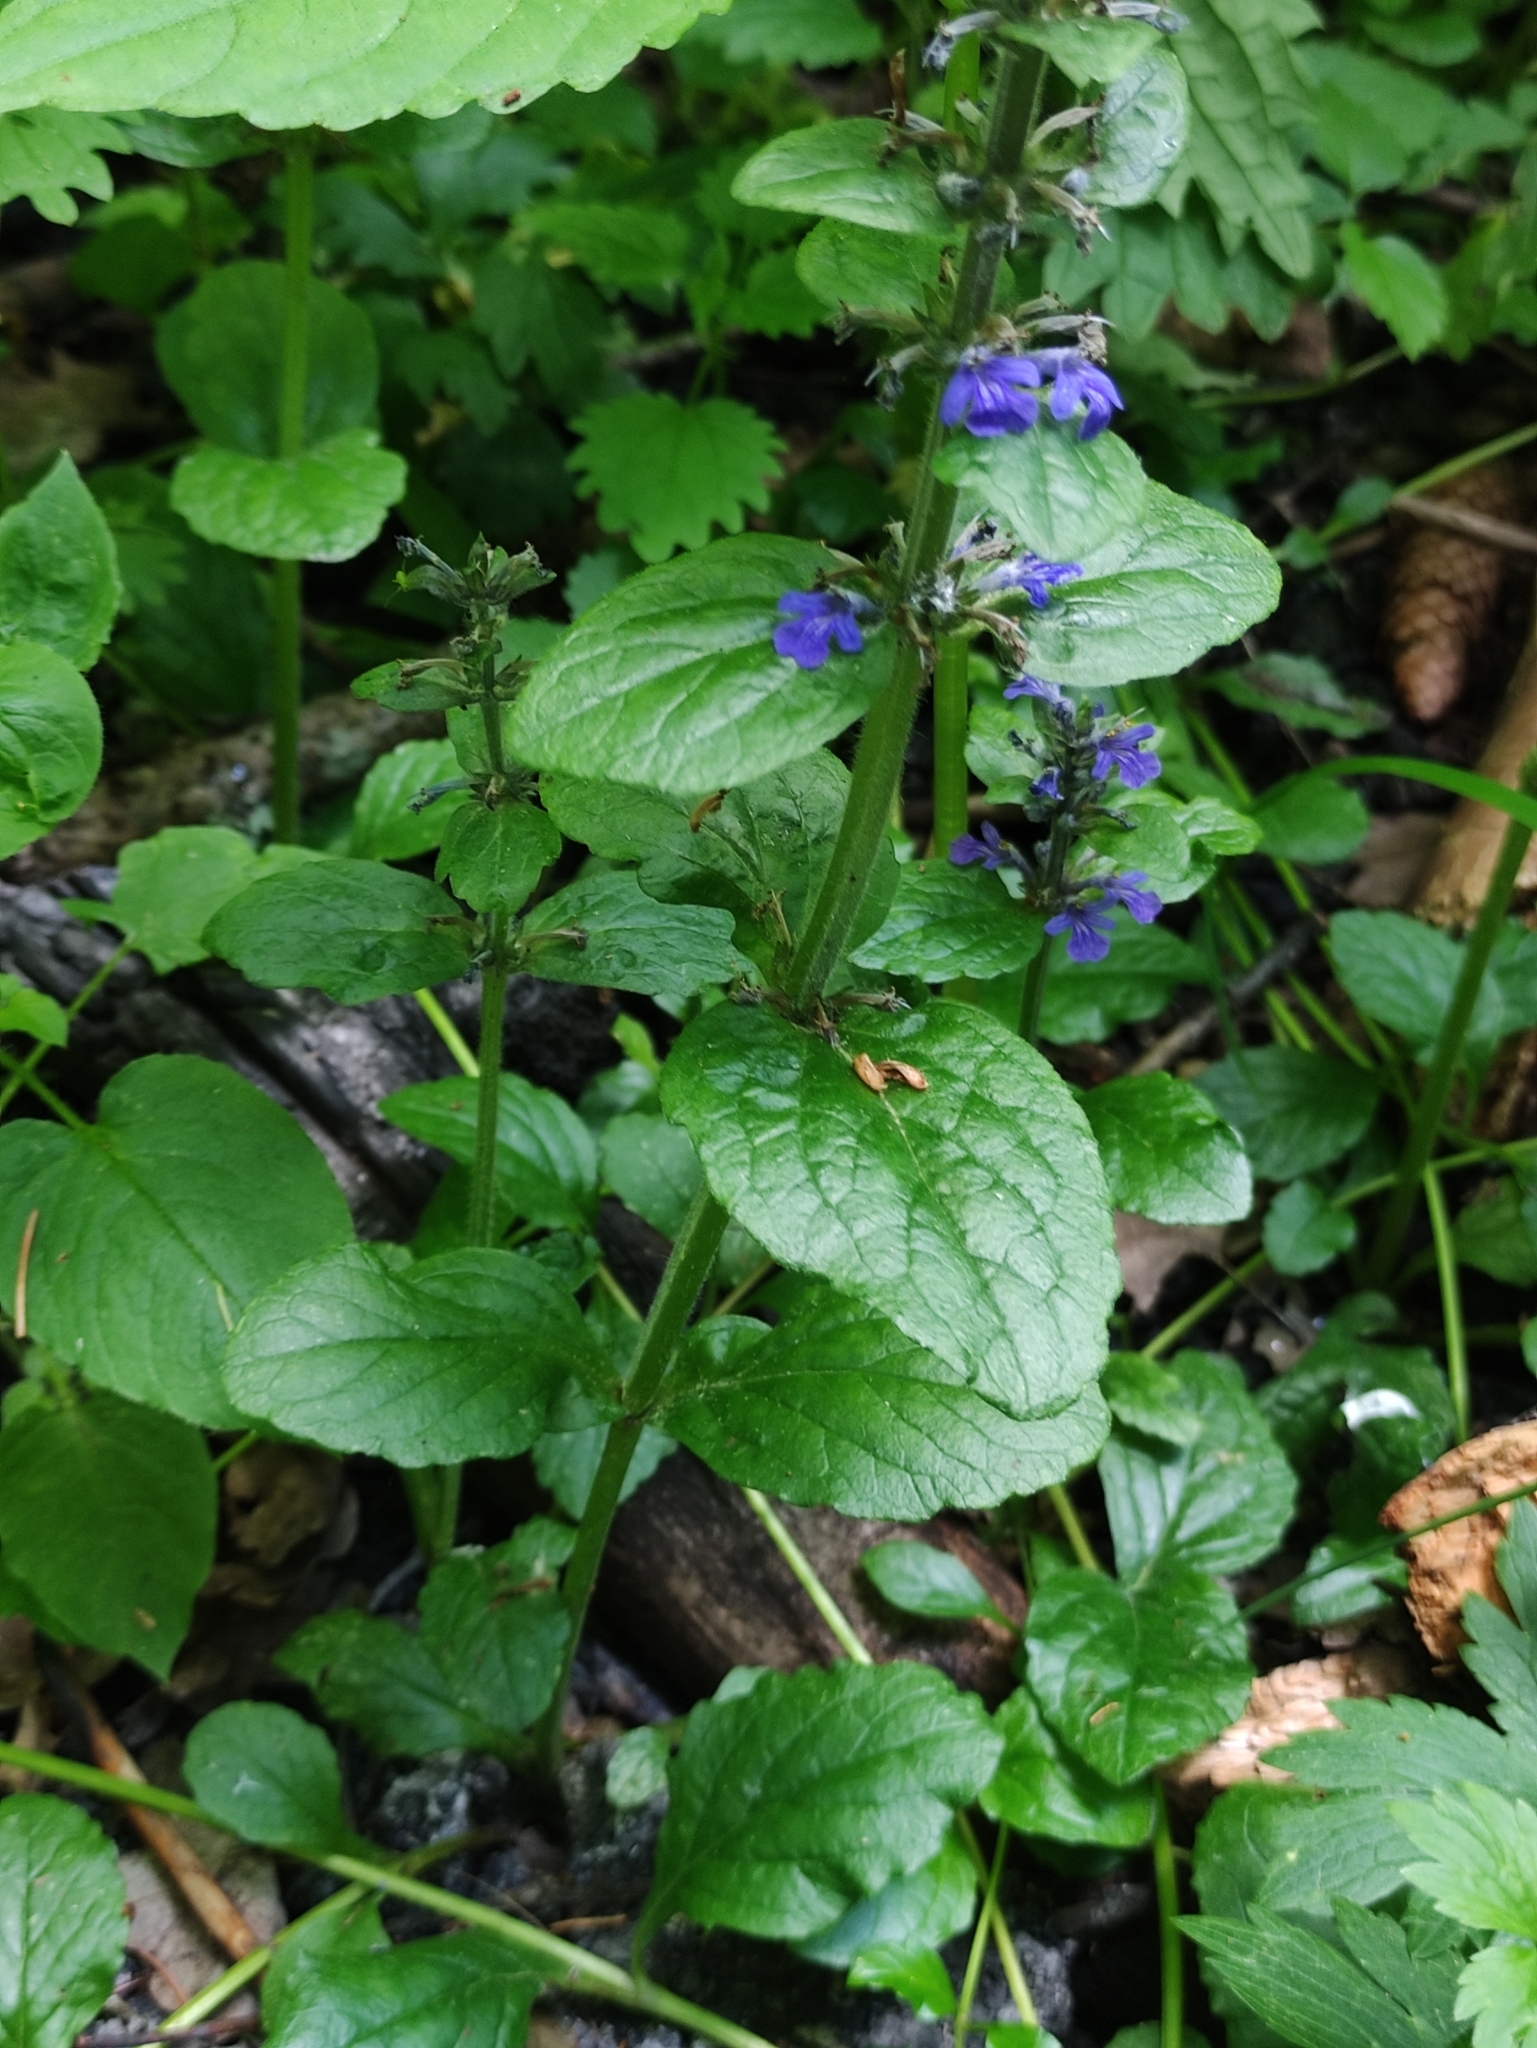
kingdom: Plantae
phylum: Tracheophyta
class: Magnoliopsida
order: Lamiales
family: Lamiaceae
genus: Ajuga
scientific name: Ajuga reptans
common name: Bugle
